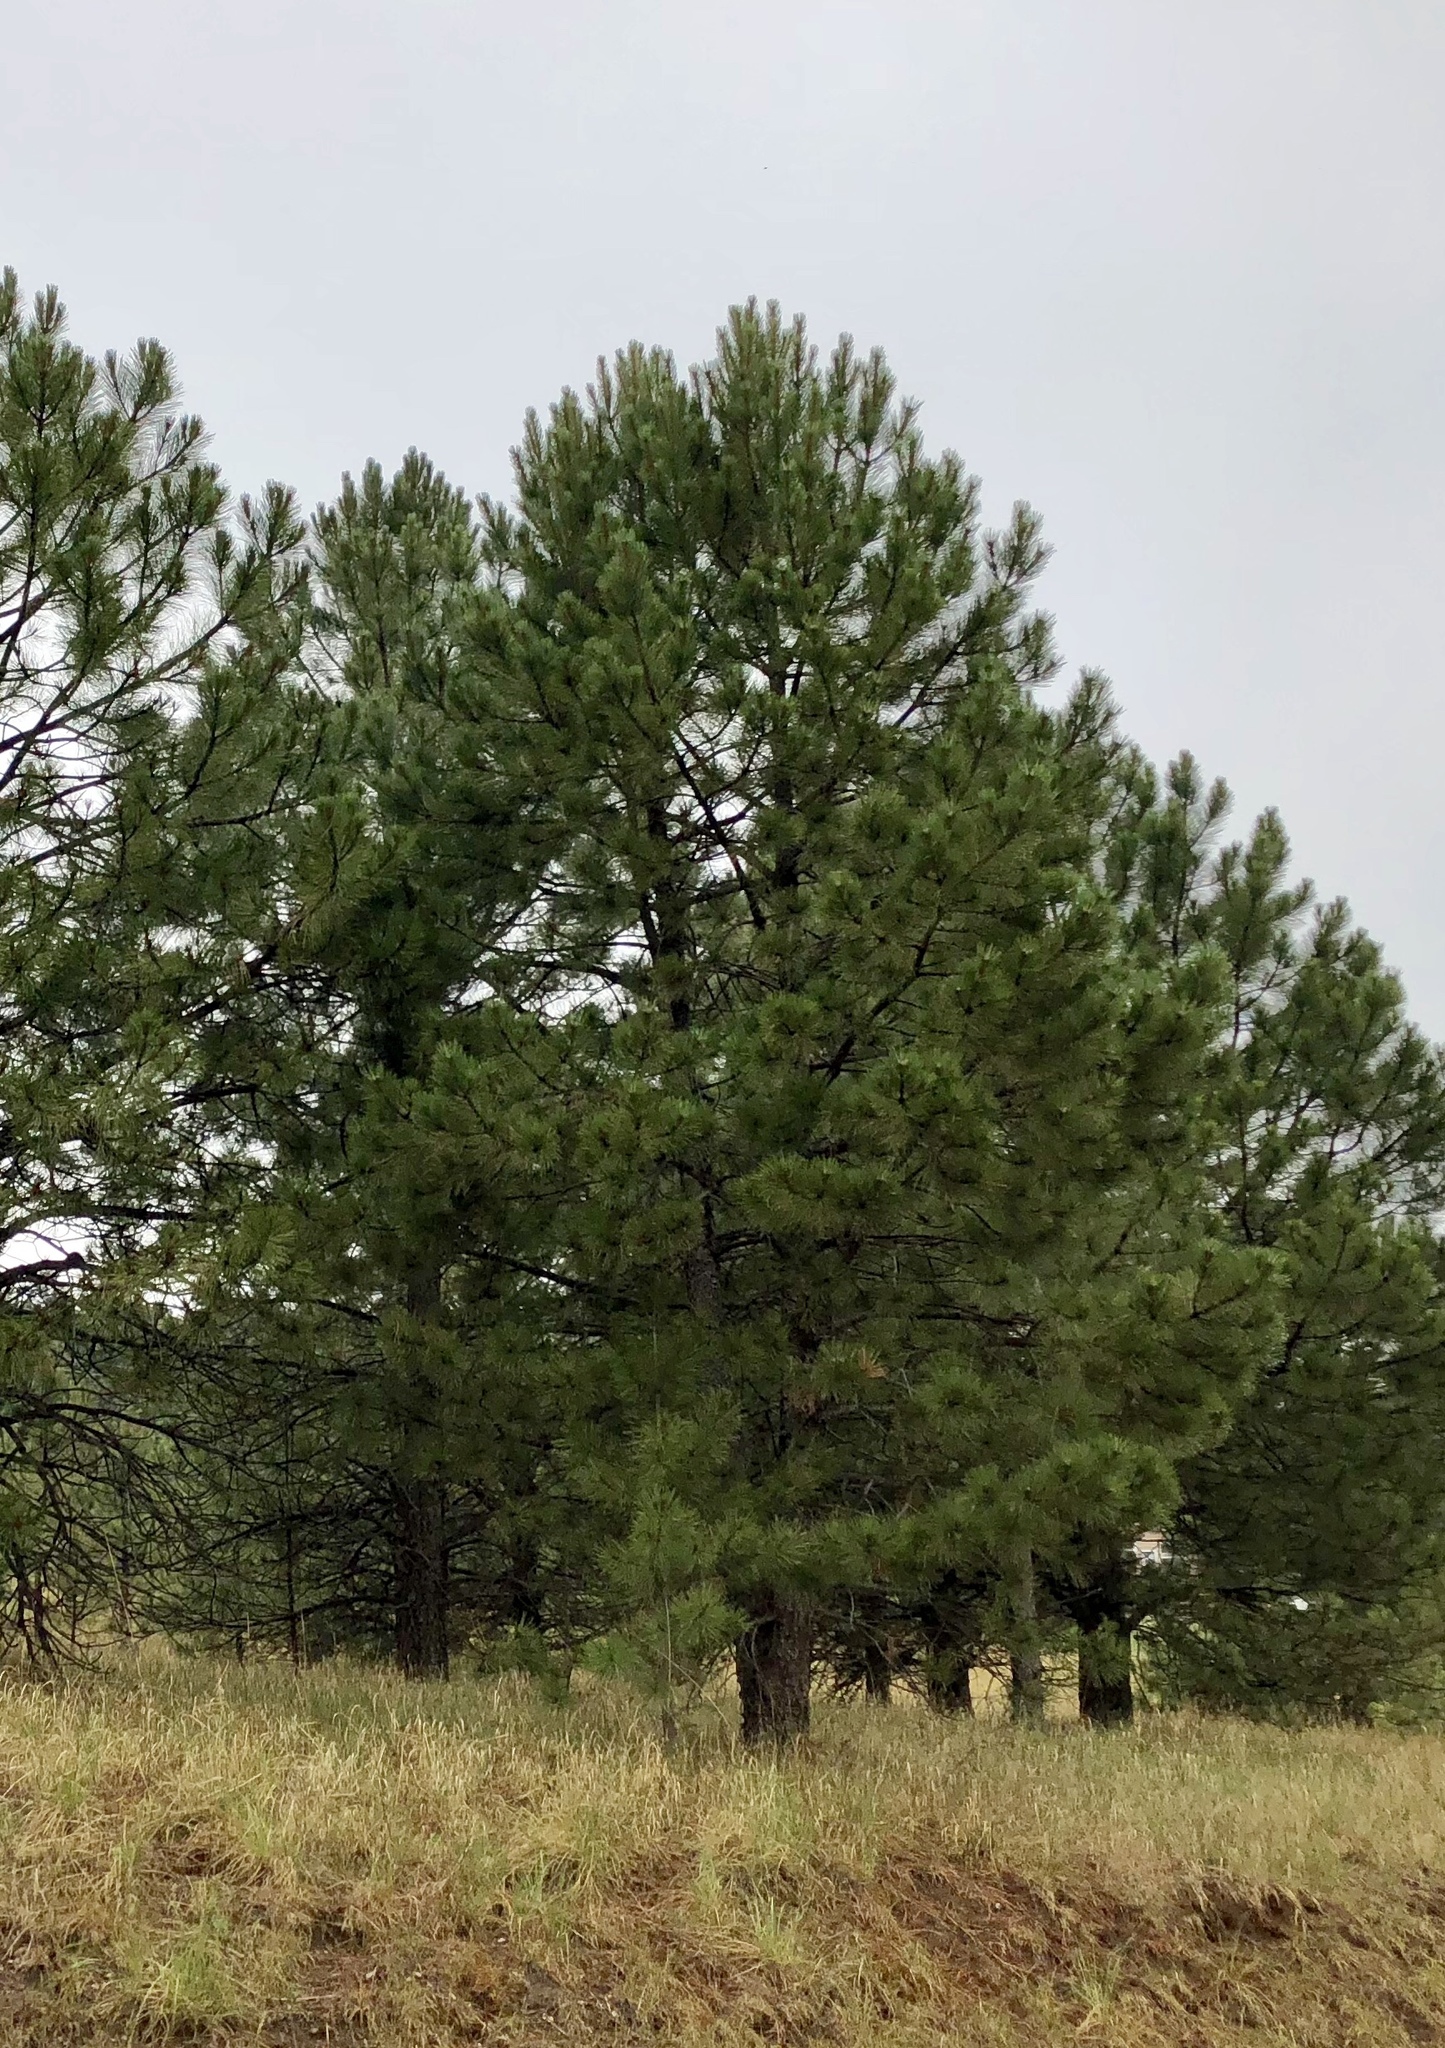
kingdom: Plantae
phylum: Tracheophyta
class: Pinopsida
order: Pinales
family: Pinaceae
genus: Pinus
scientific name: Pinus ponderosa
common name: Western yellow-pine
